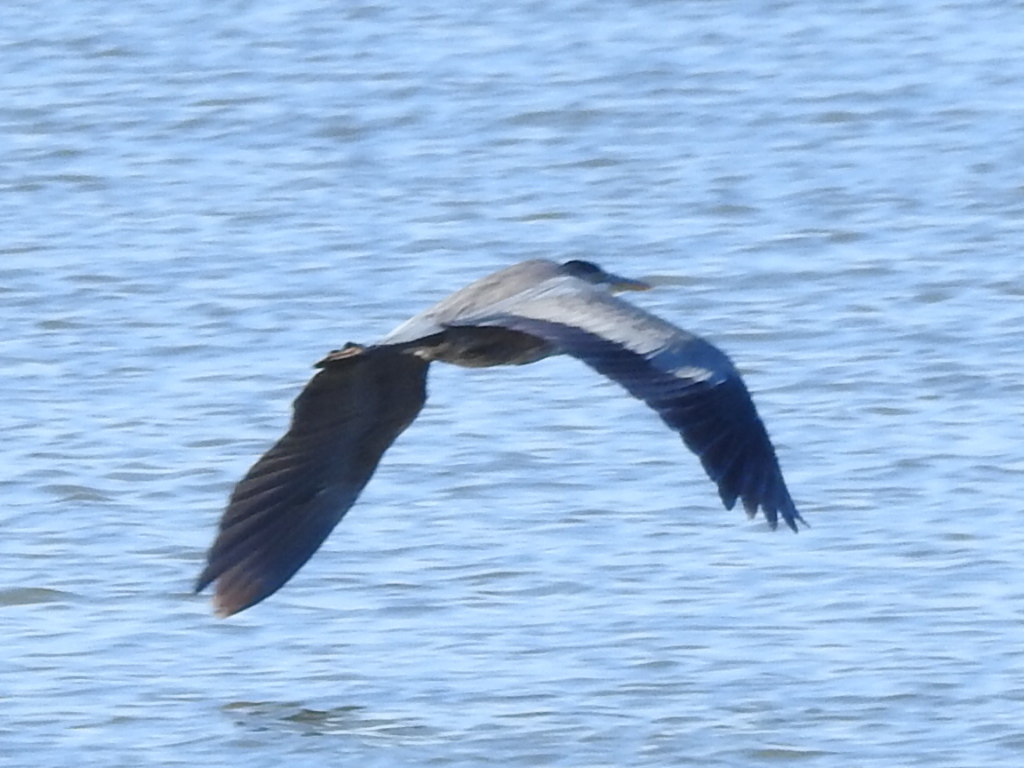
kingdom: Animalia
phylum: Chordata
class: Aves
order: Pelecaniformes
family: Ardeidae
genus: Ardea
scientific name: Ardea herodias
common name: Great blue heron
